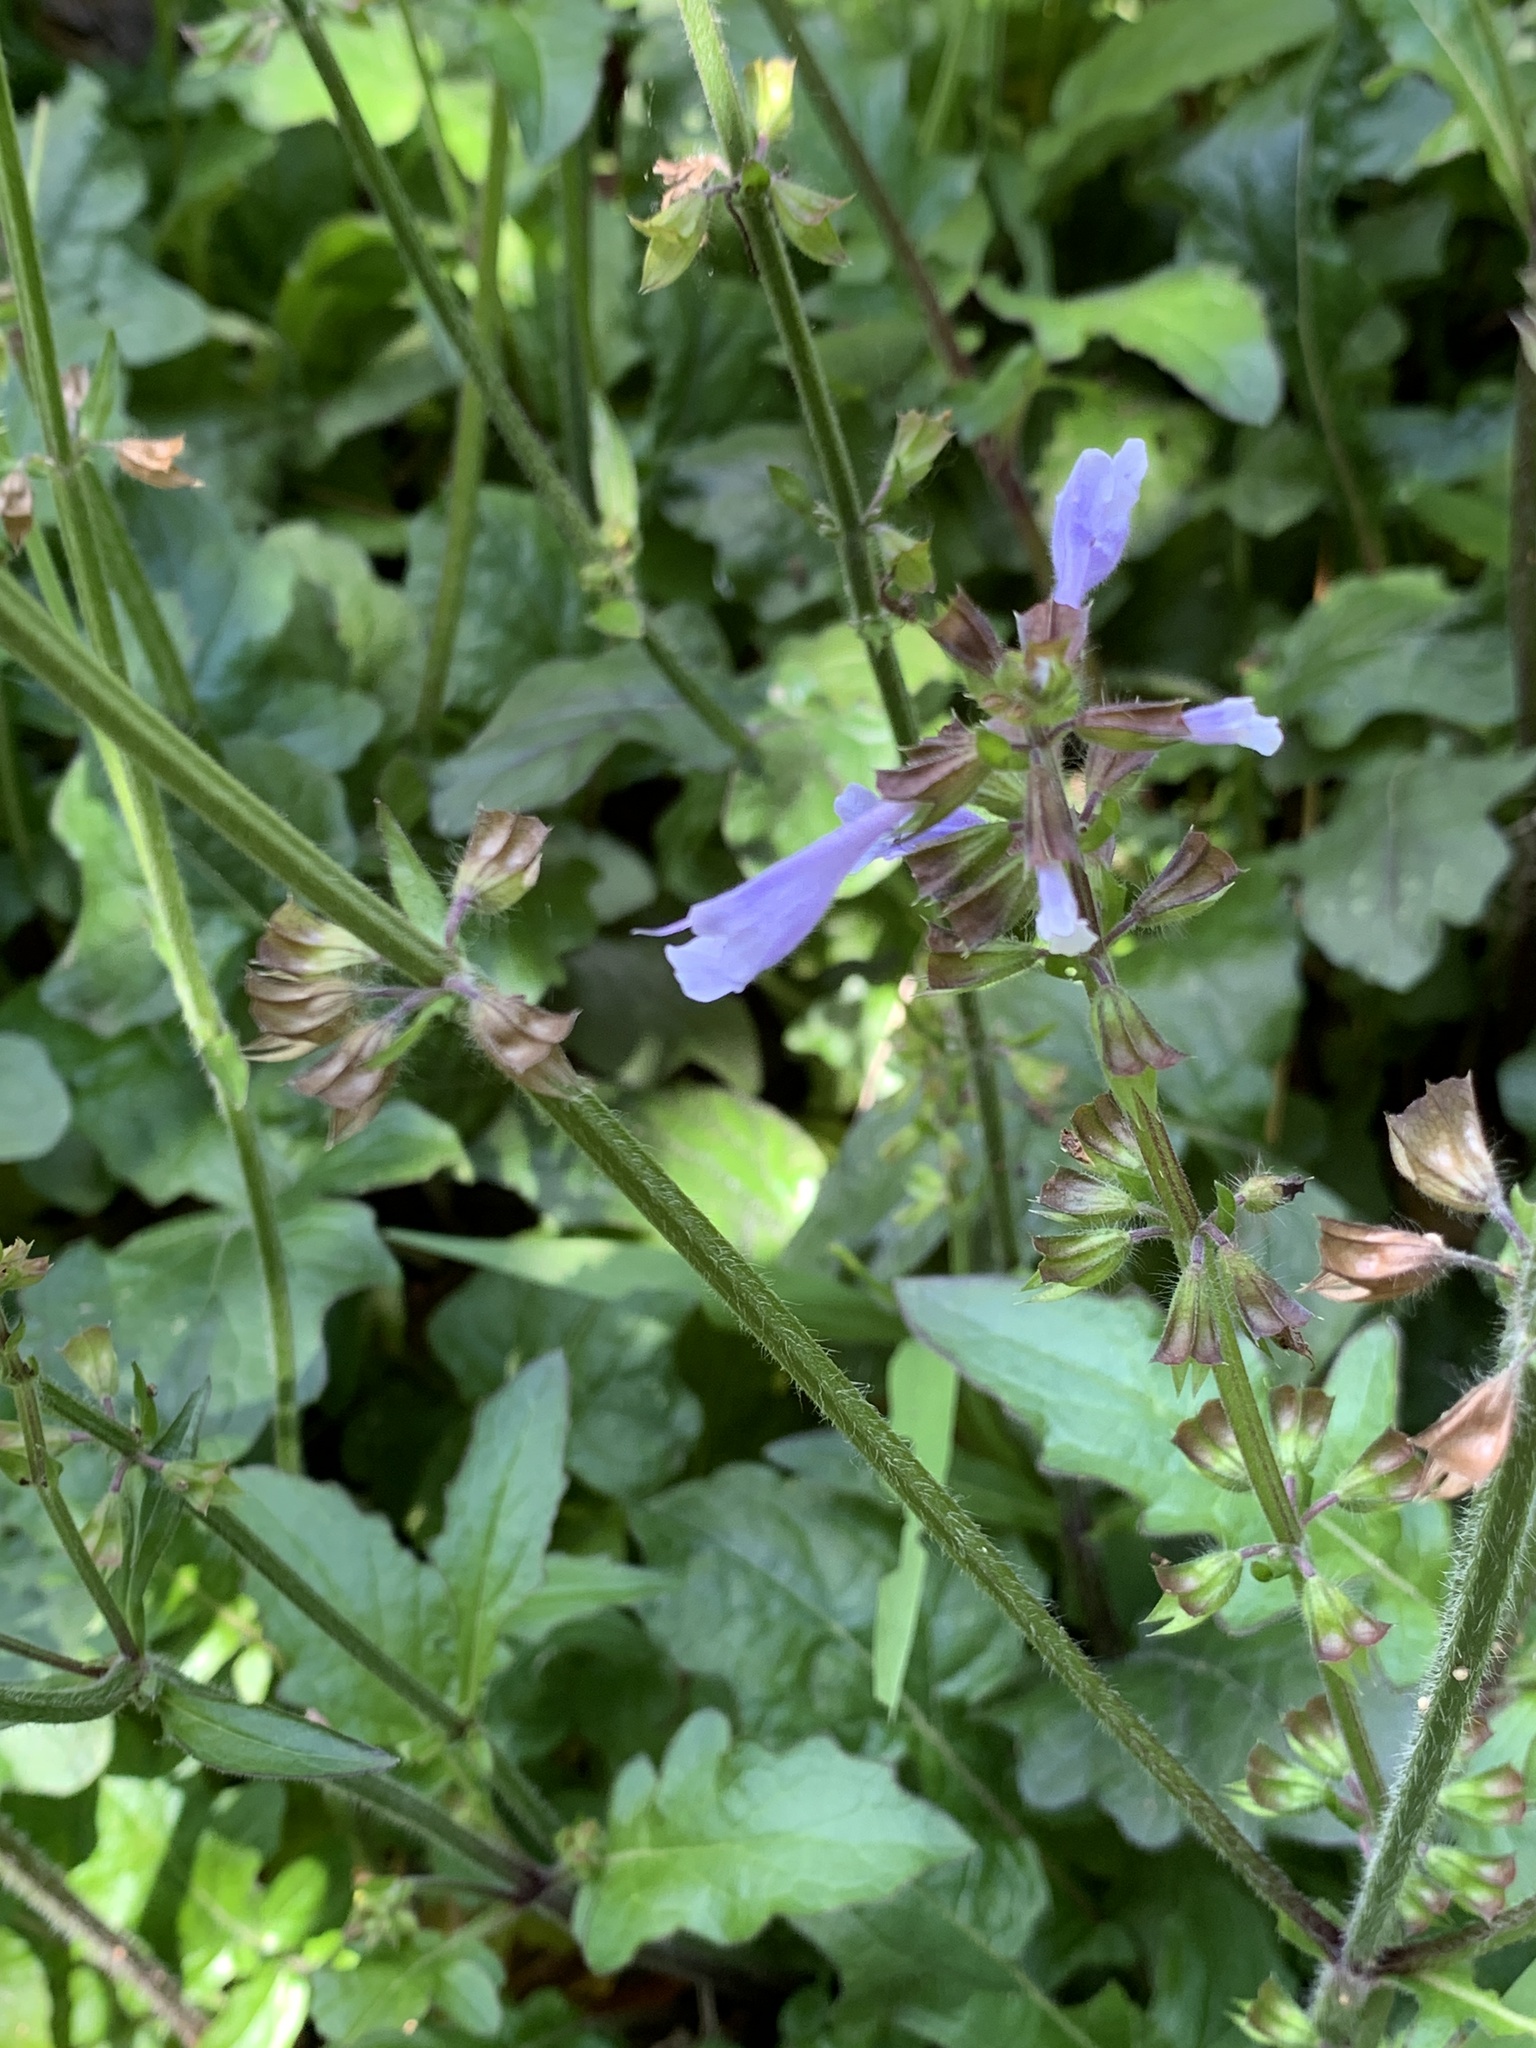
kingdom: Plantae
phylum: Tracheophyta
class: Magnoliopsida
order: Lamiales
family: Lamiaceae
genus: Salvia
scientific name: Salvia lyrata
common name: Cancerweed
